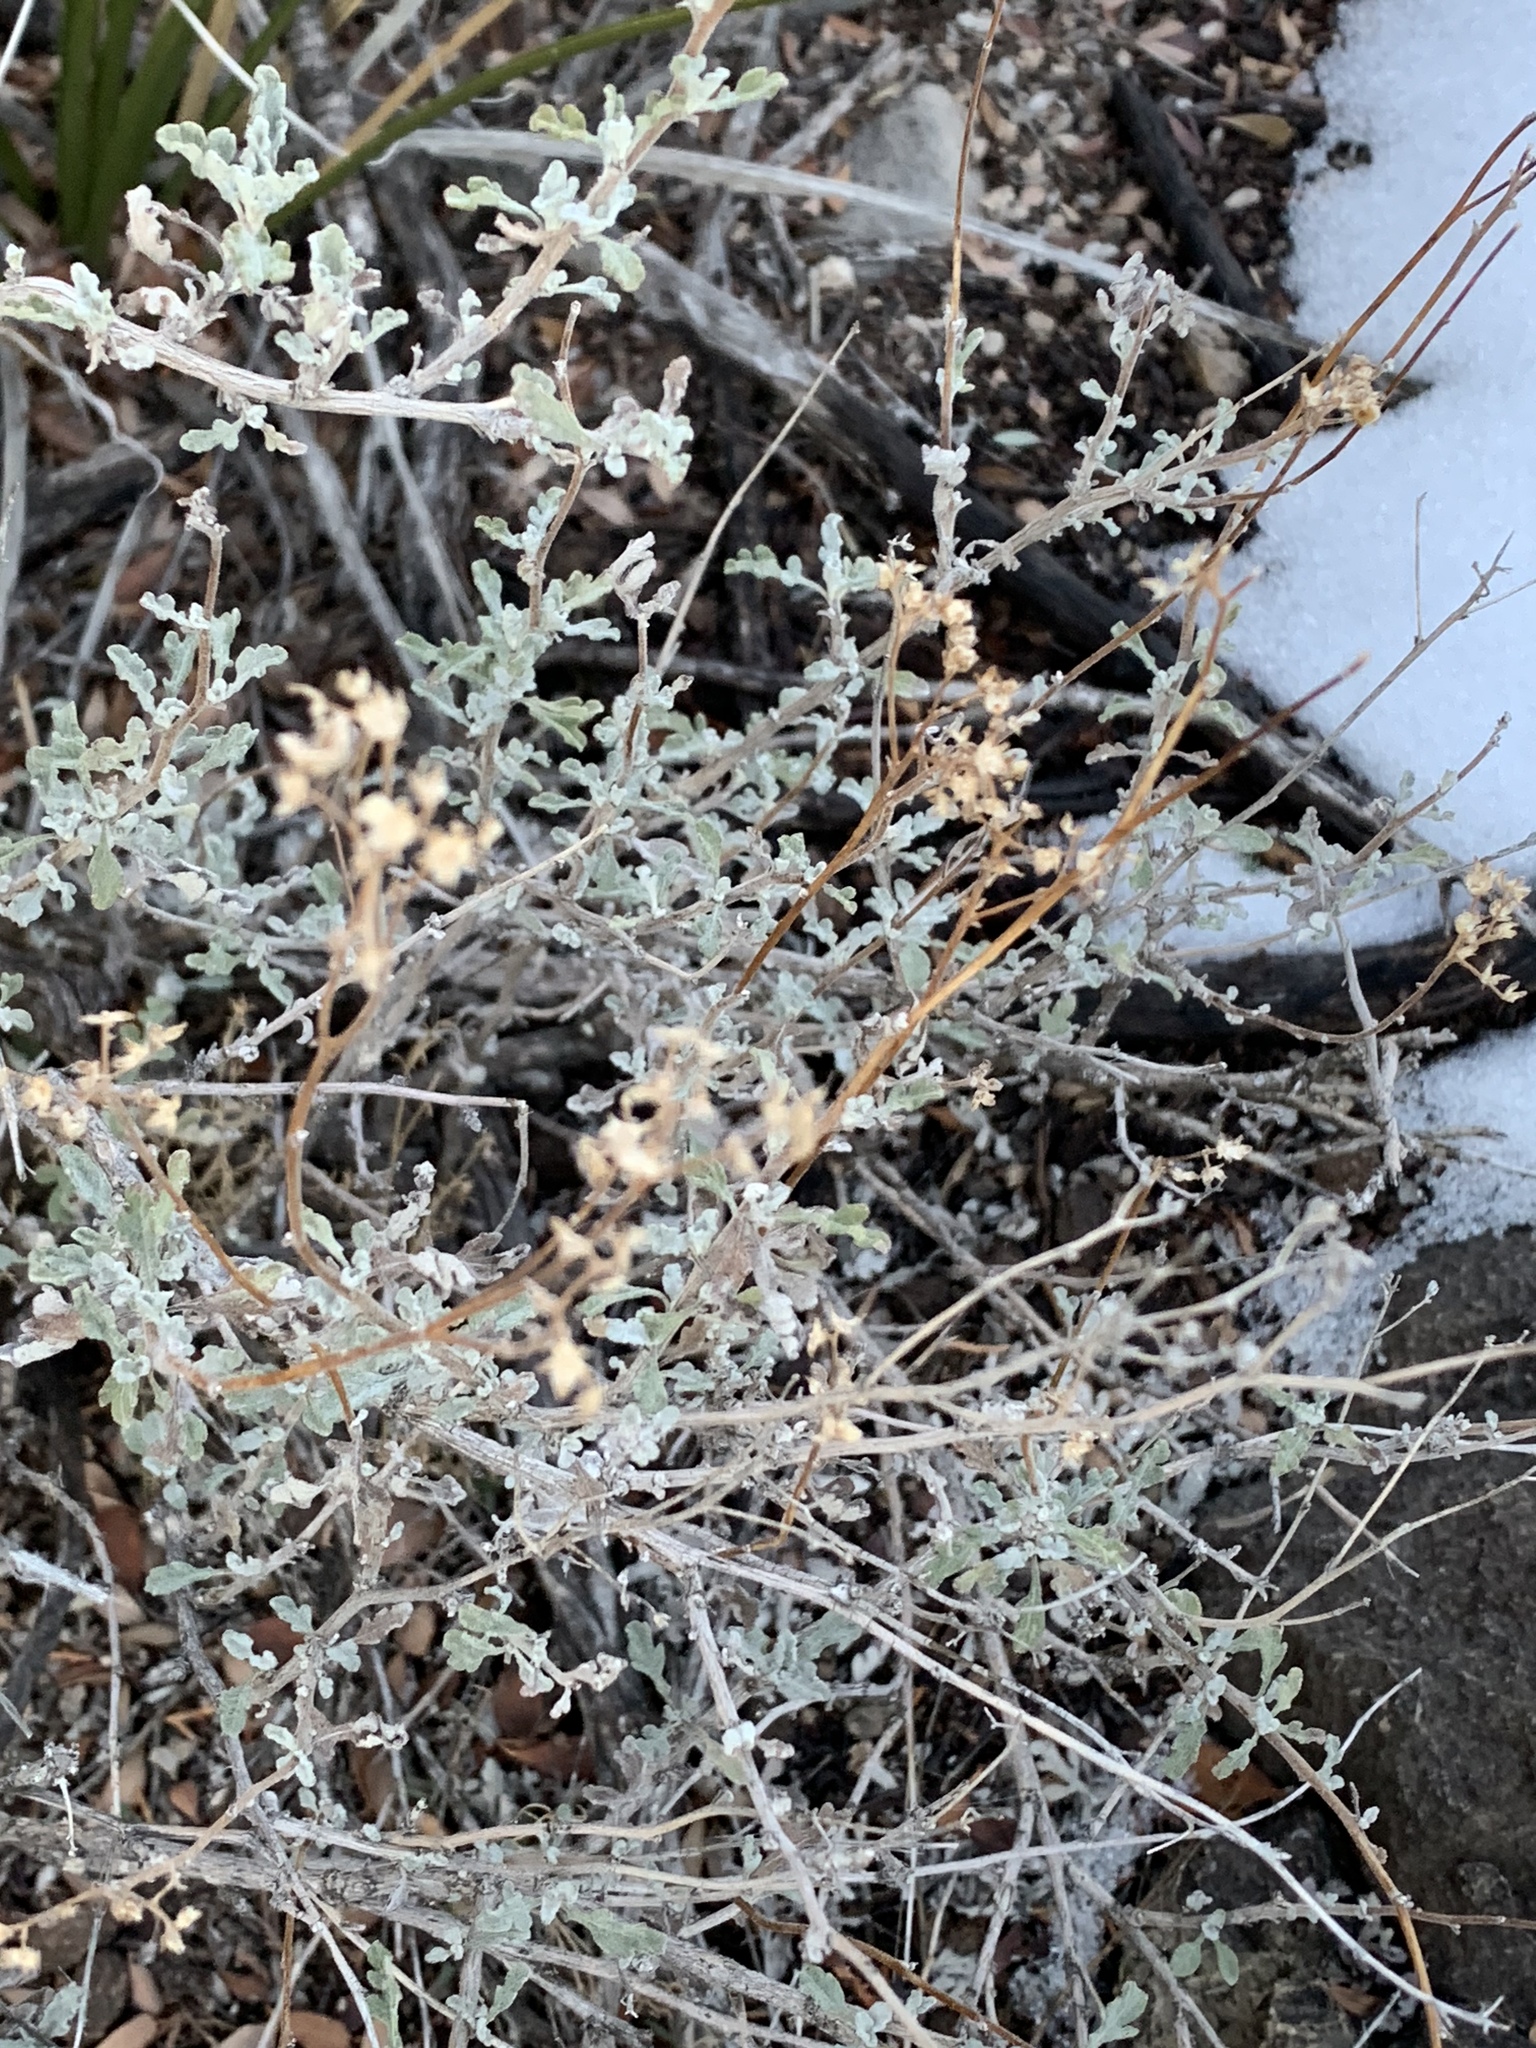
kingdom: Plantae
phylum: Tracheophyta
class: Magnoliopsida
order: Asterales
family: Asteraceae
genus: Parthenium
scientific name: Parthenium incanum
